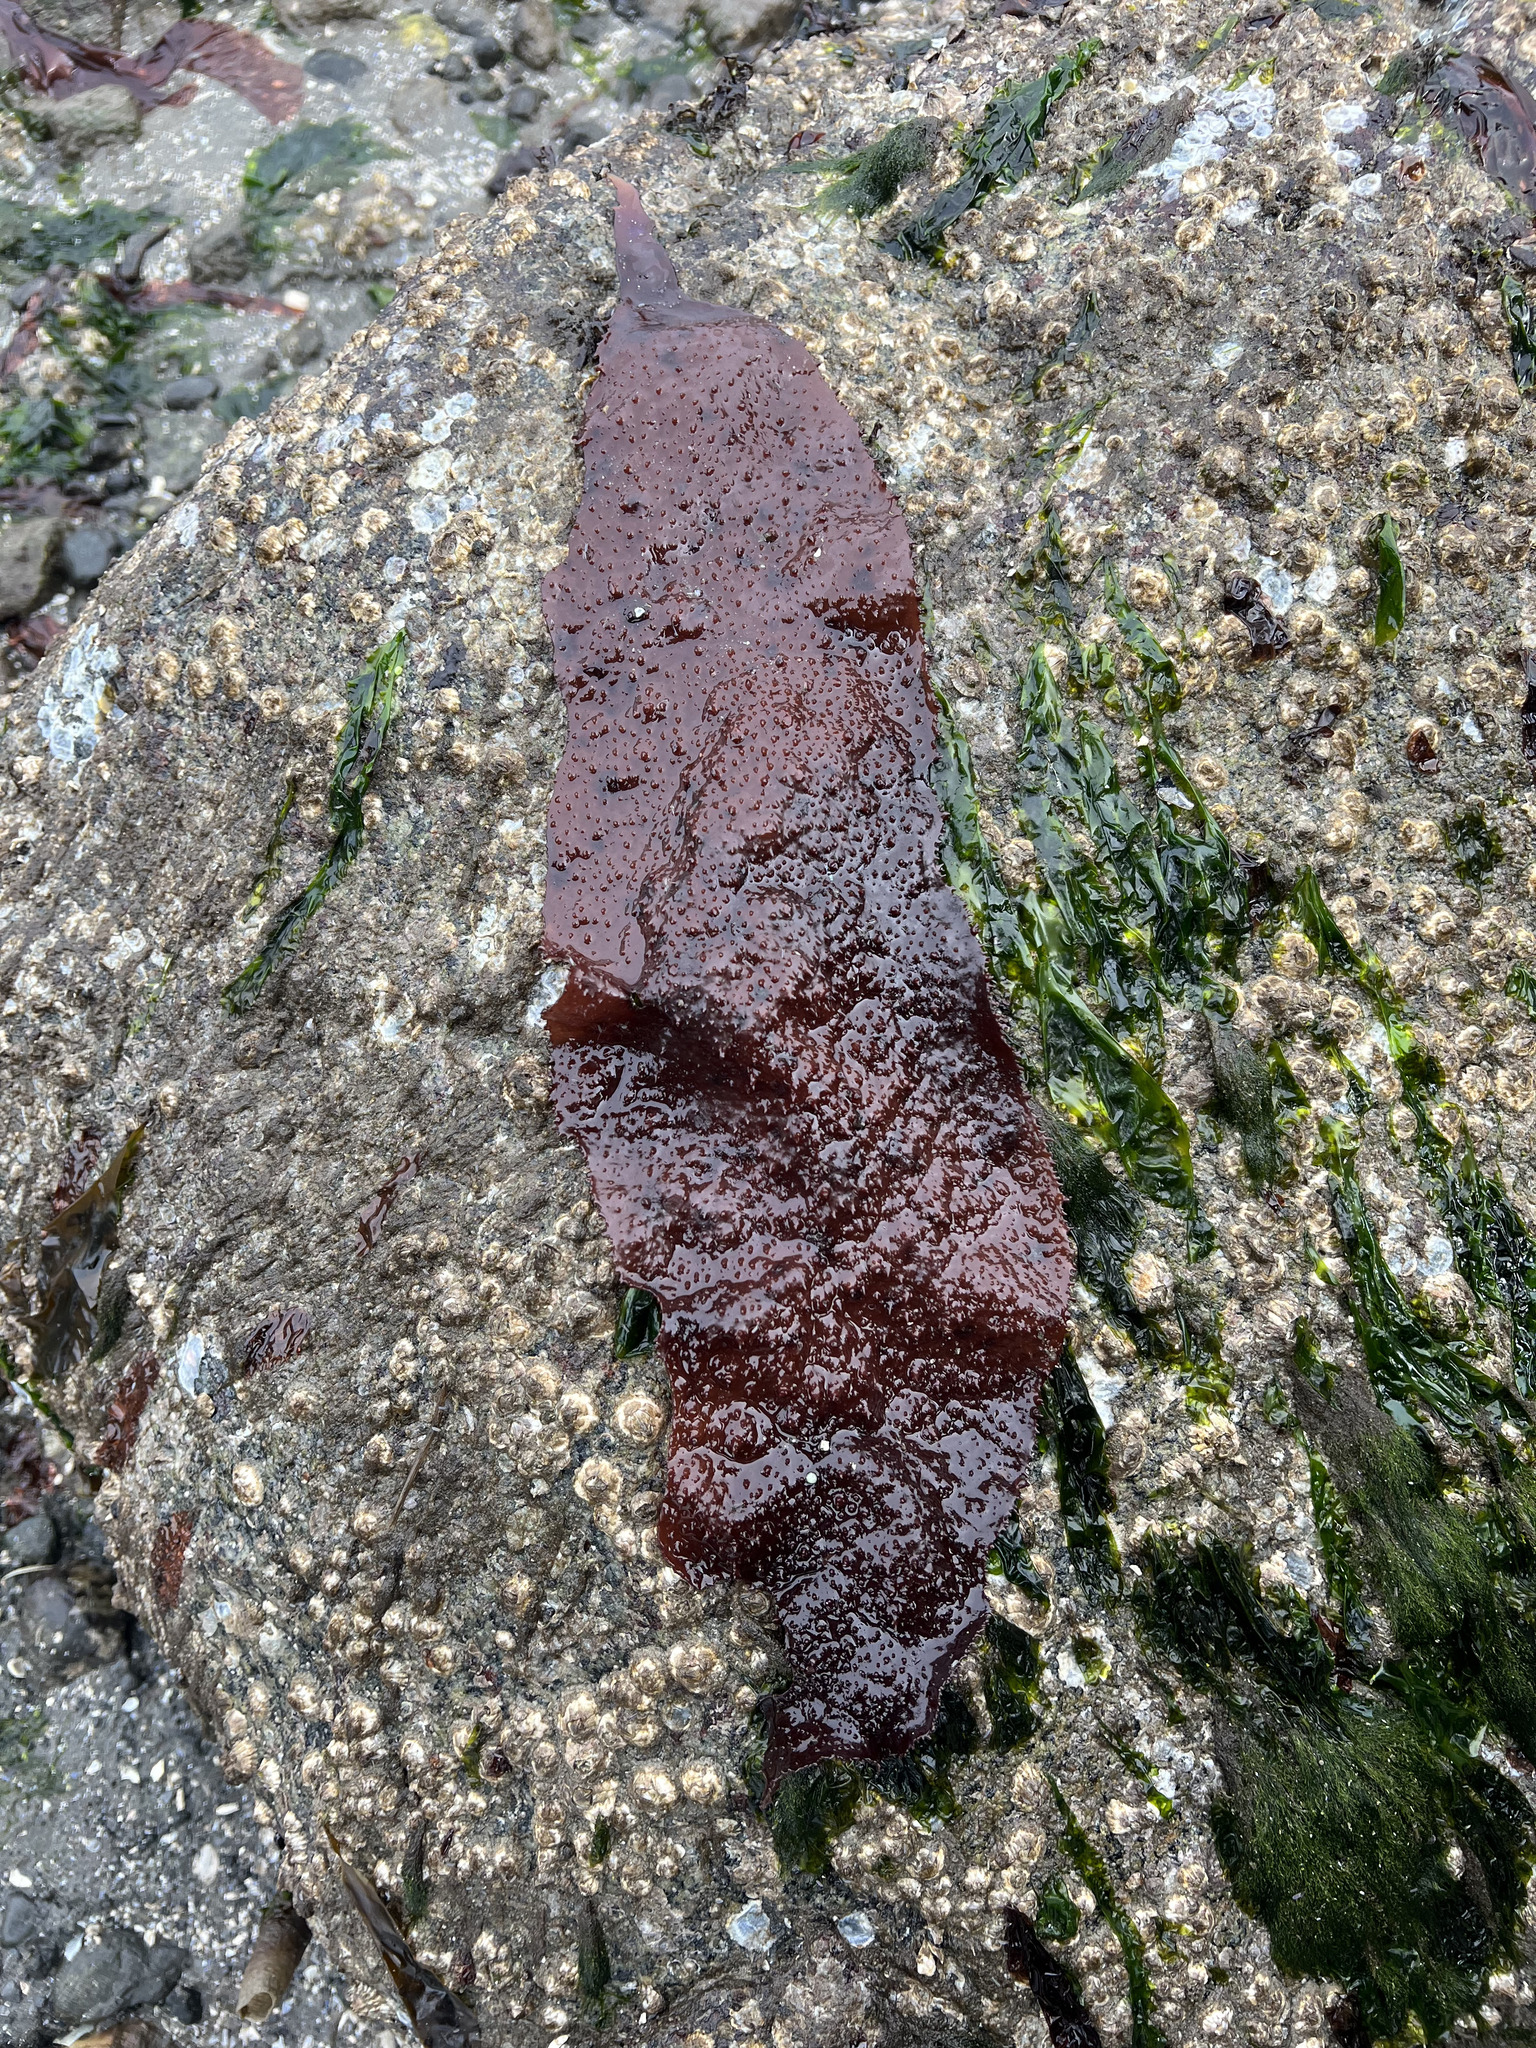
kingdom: Plantae
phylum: Rhodophyta
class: Florideophyceae
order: Gigartinales
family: Gigartinaceae
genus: Chondracanthus
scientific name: Chondracanthus exasperatus
